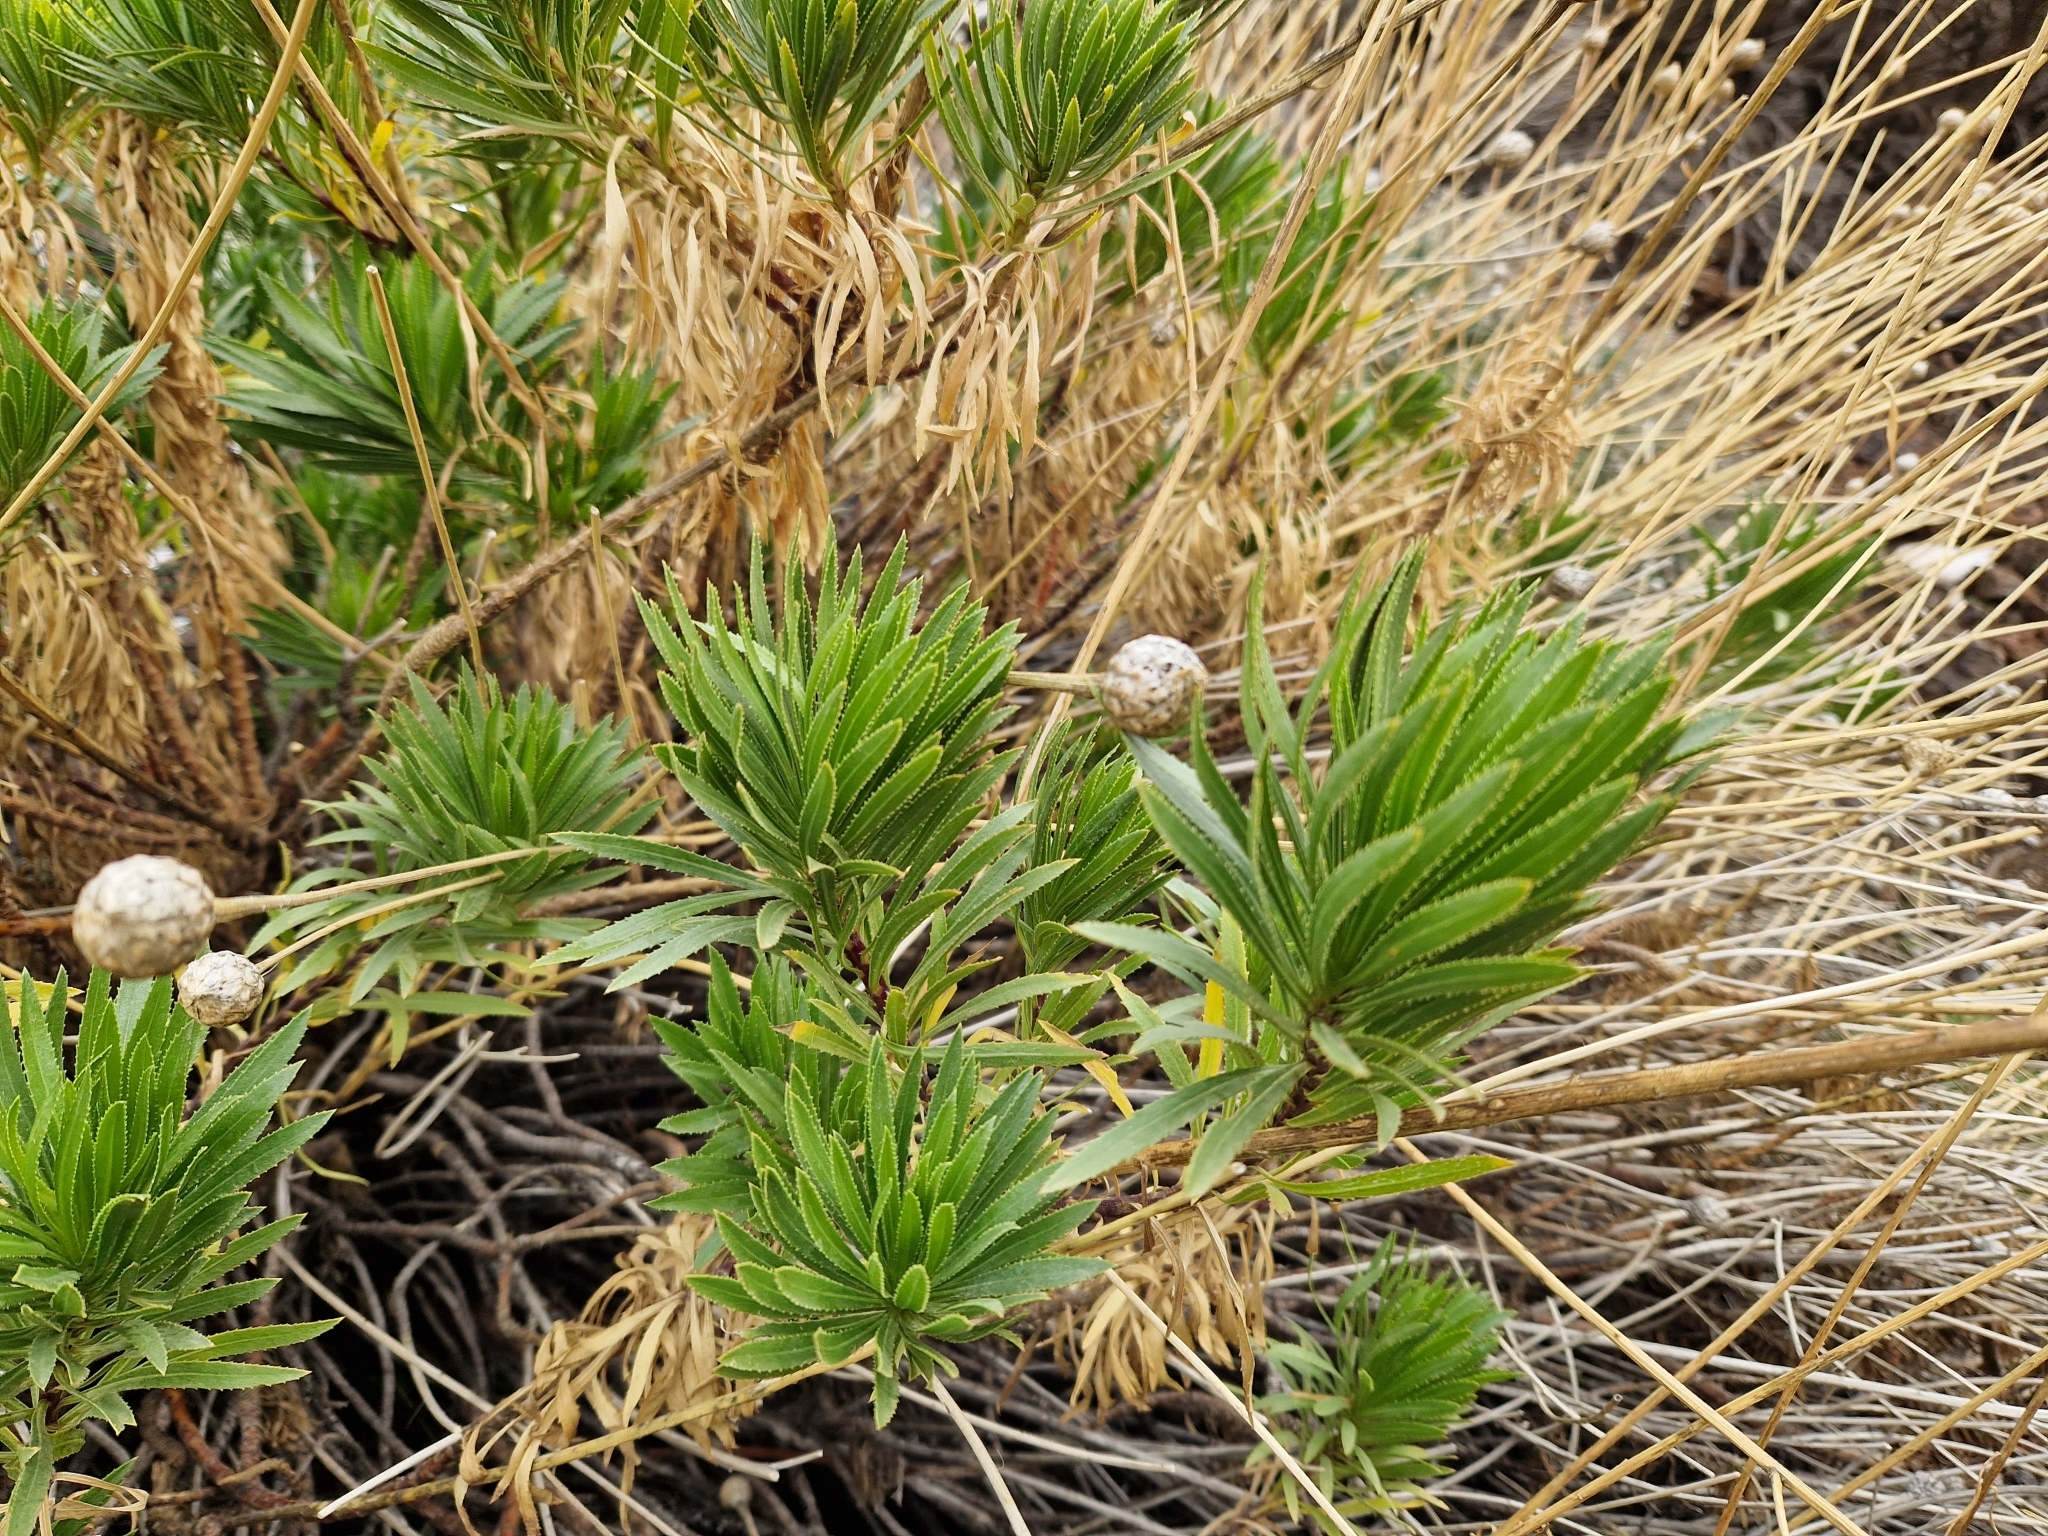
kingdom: Plantae
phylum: Tracheophyta
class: Magnoliopsida
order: Asterales
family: Asteraceae
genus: Cheirolophus
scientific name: Cheirolophus teydis
